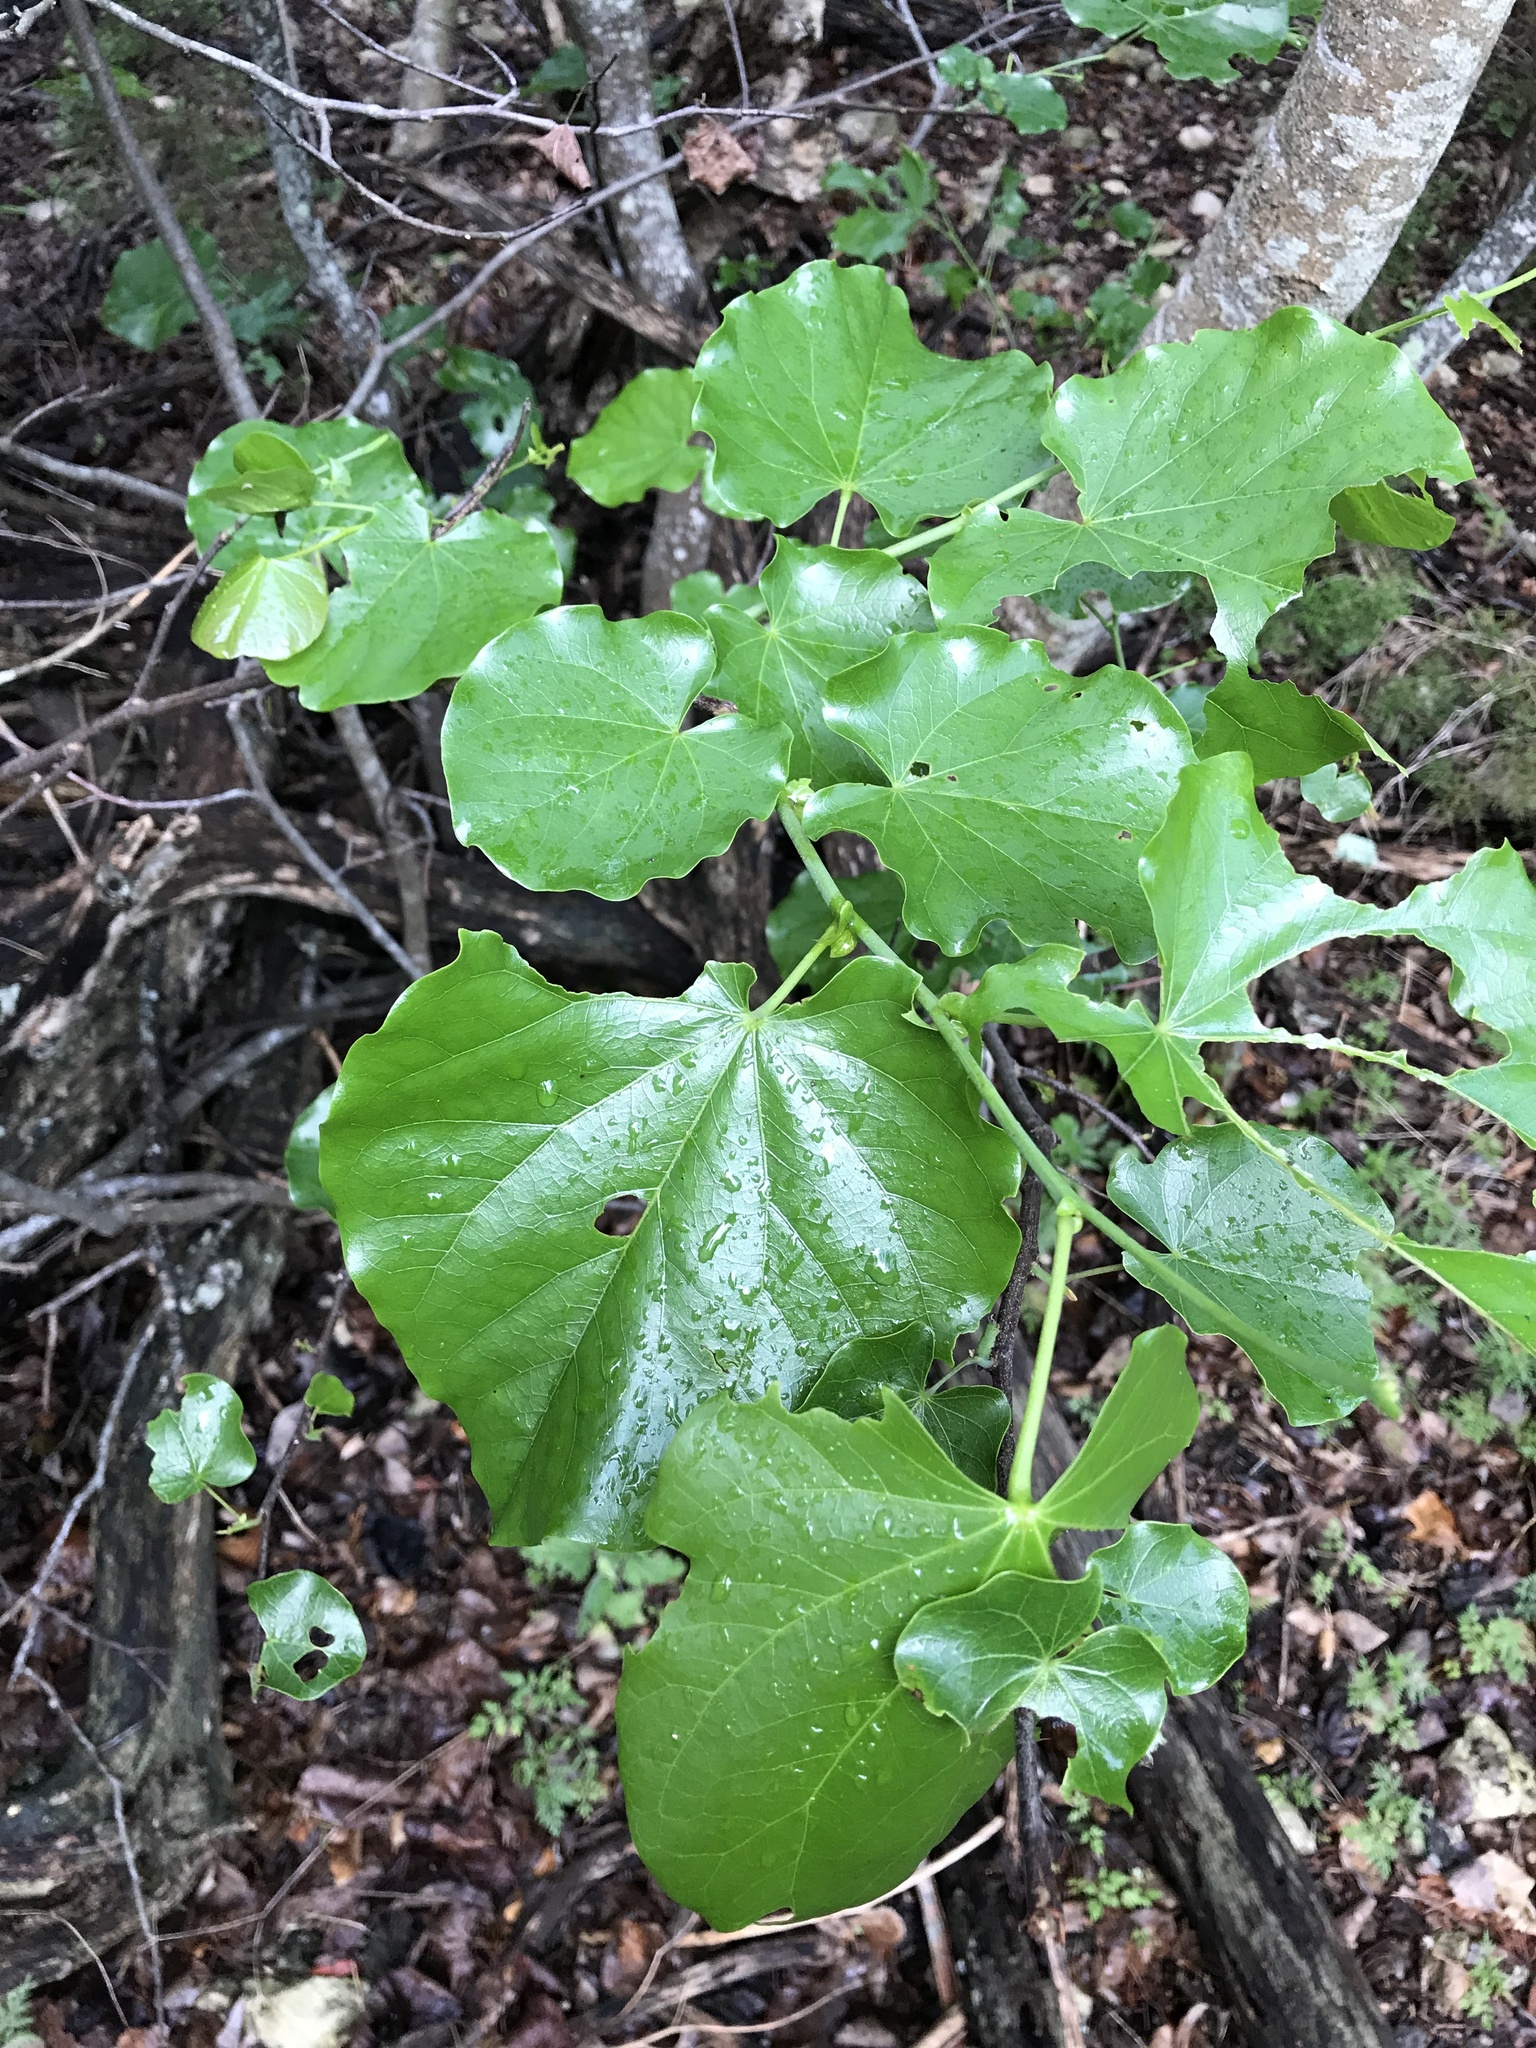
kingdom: Plantae
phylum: Tracheophyta
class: Magnoliopsida
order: Fabales
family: Fabaceae
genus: Cercis
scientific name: Cercis canadensis
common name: Eastern redbud
